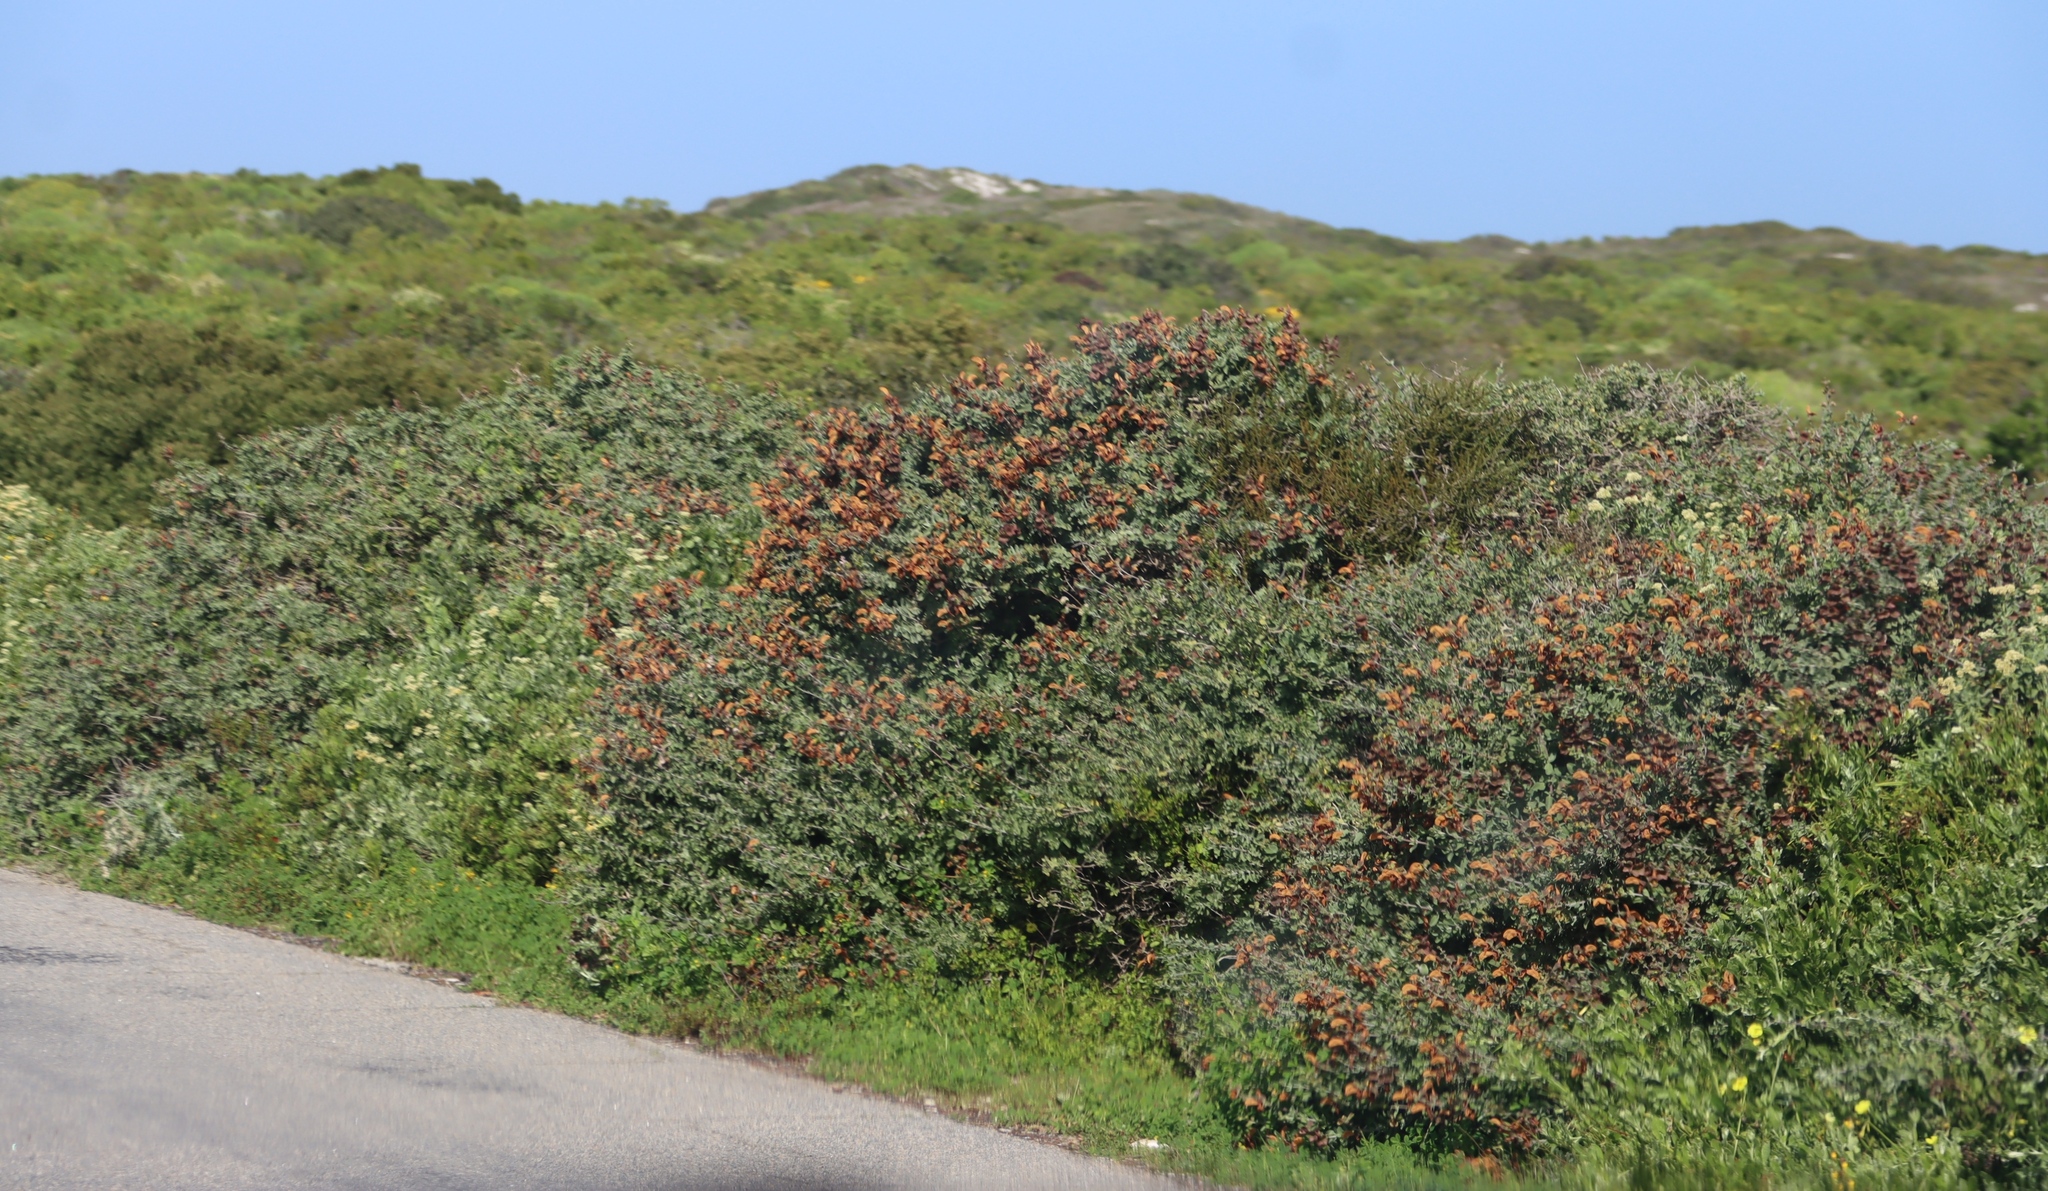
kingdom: Plantae
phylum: Tracheophyta
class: Magnoliopsida
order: Lamiales
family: Lamiaceae
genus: Salvia
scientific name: Salvia aurea
